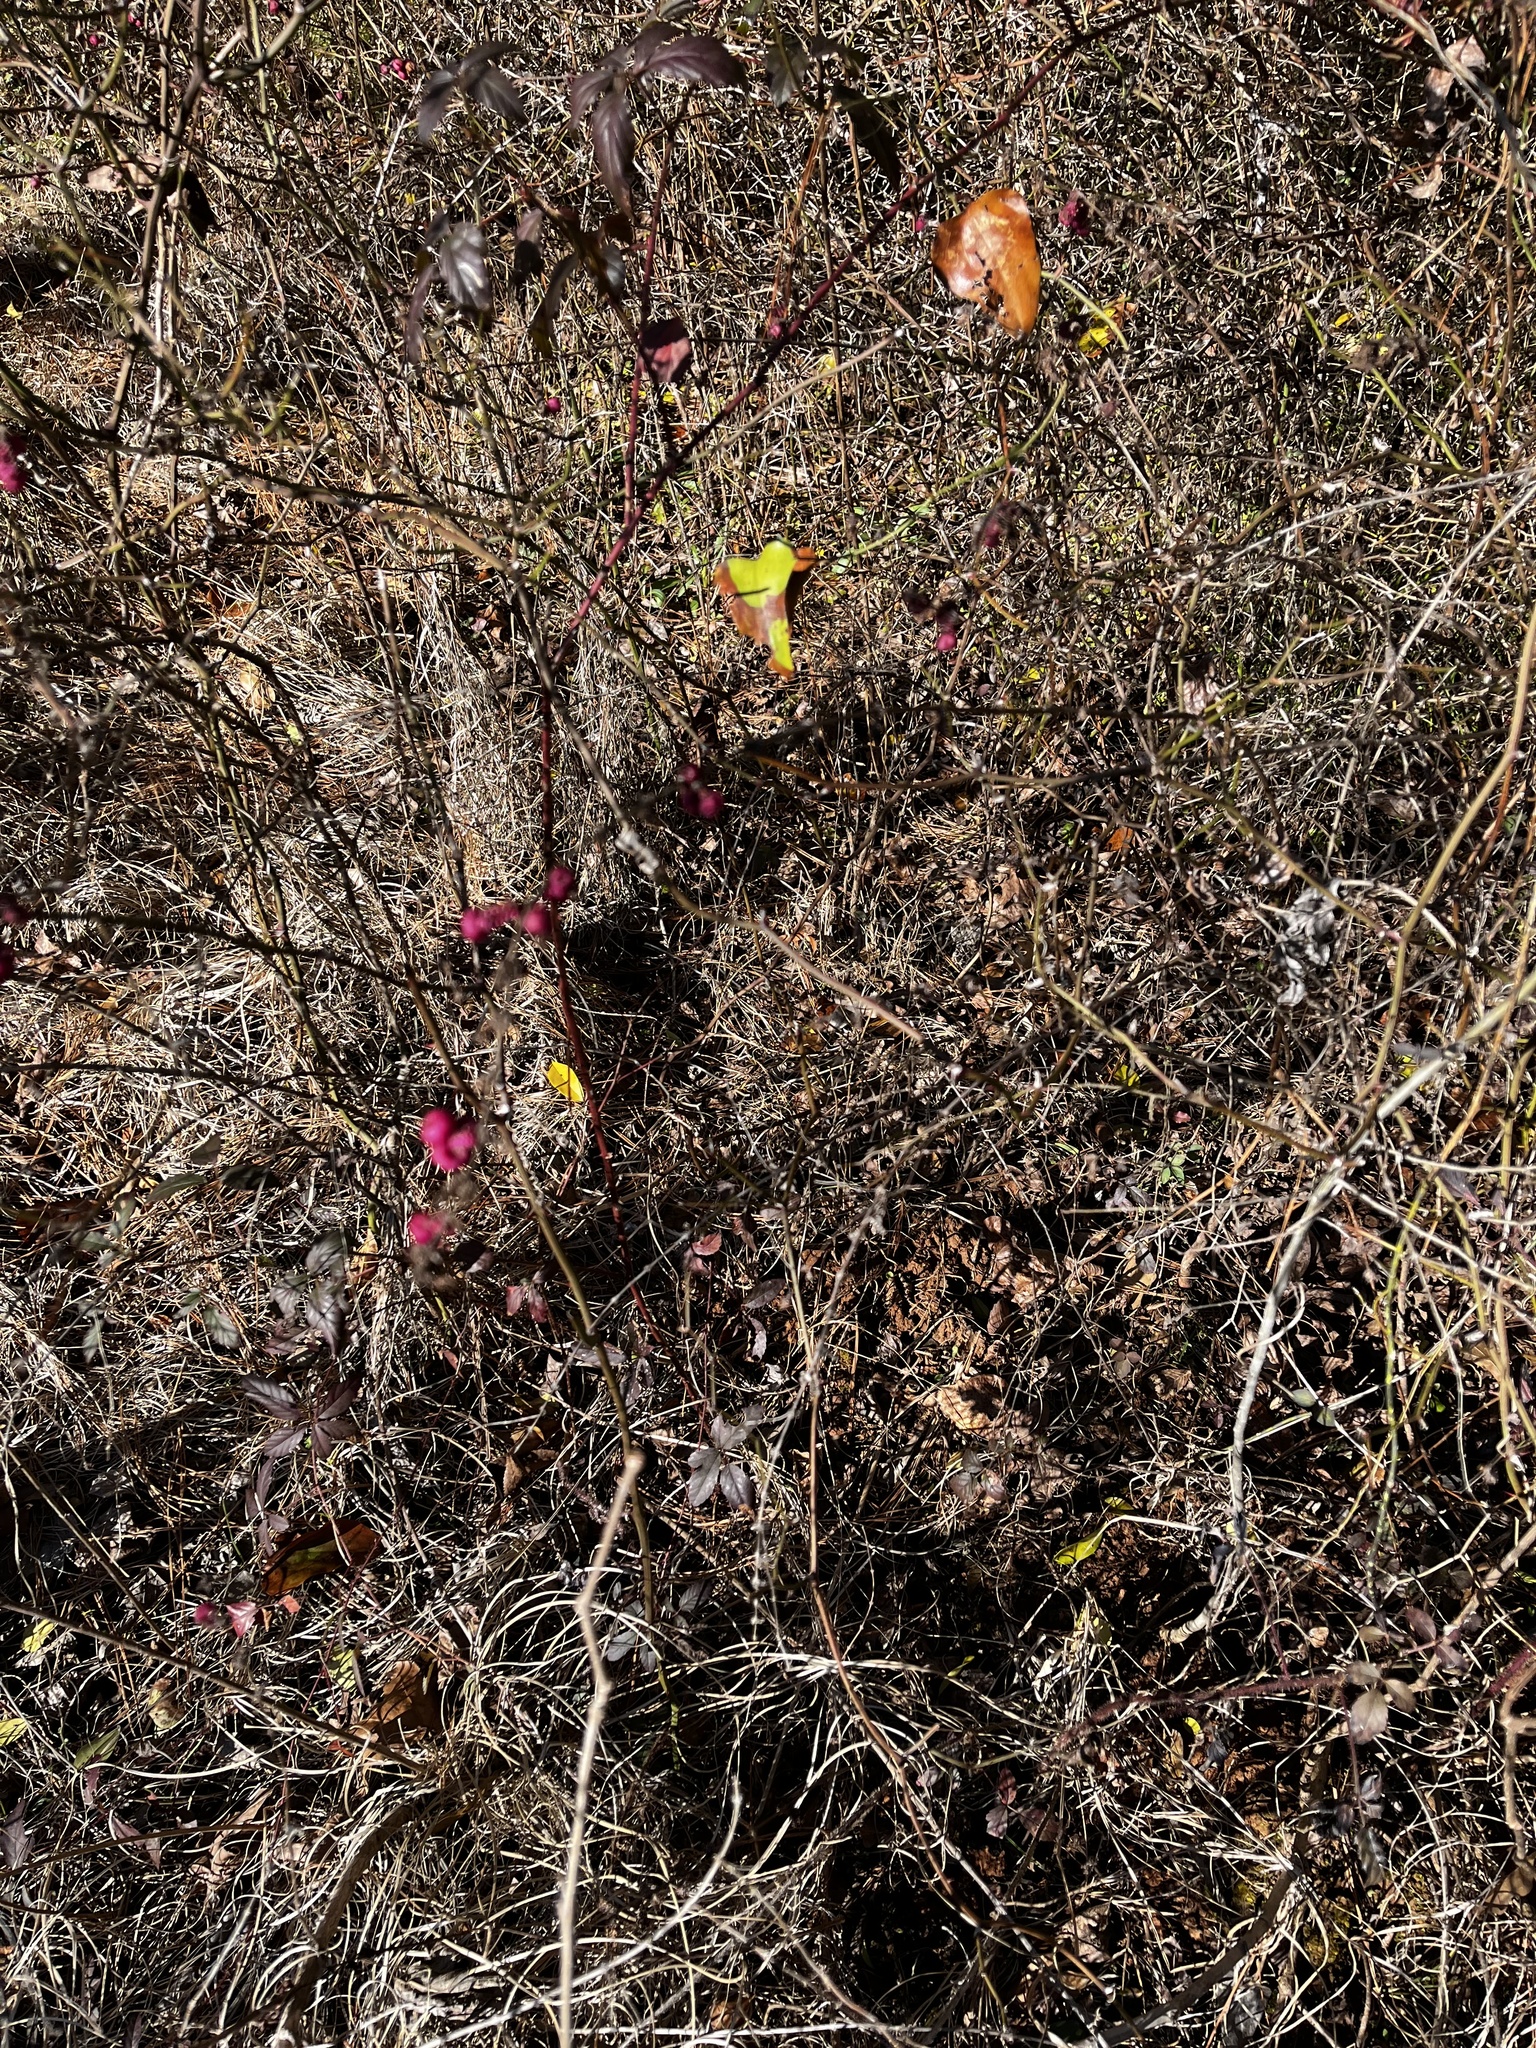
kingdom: Plantae
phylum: Tracheophyta
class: Magnoliopsida
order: Dipsacales
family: Caprifoliaceae
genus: Symphoricarpos
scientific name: Symphoricarpos orbiculatus
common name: Coralberry
